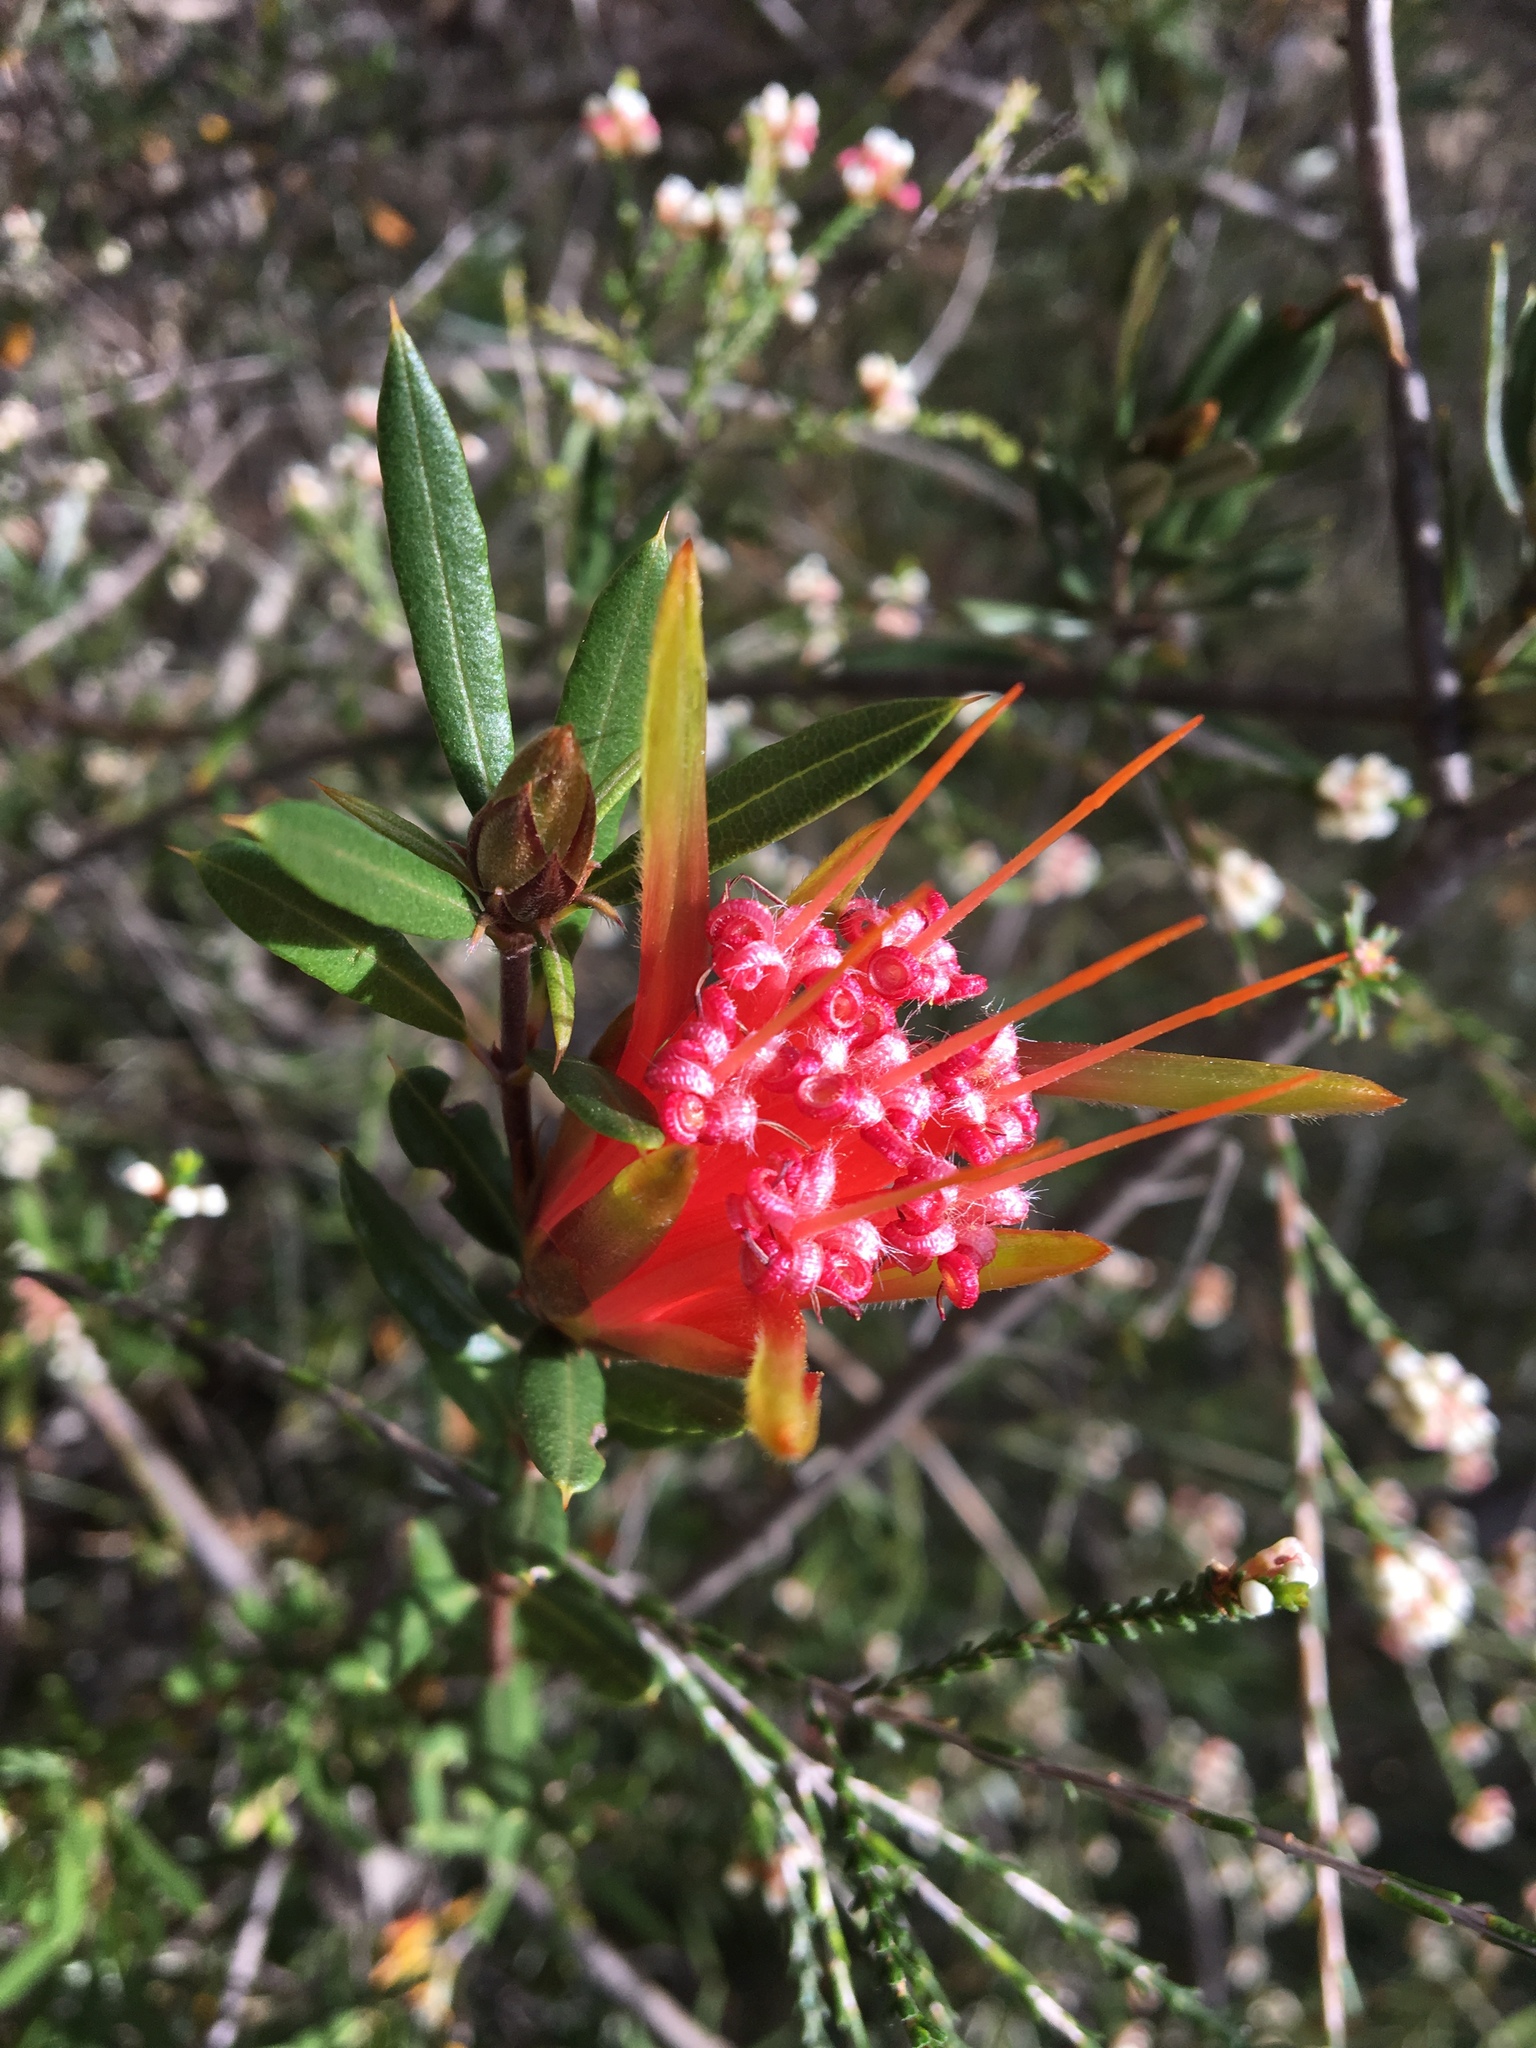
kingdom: Plantae
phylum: Tracheophyta
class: Magnoliopsida
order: Proteales
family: Proteaceae
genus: Lambertia
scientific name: Lambertia formosa
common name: Mountain-devil
